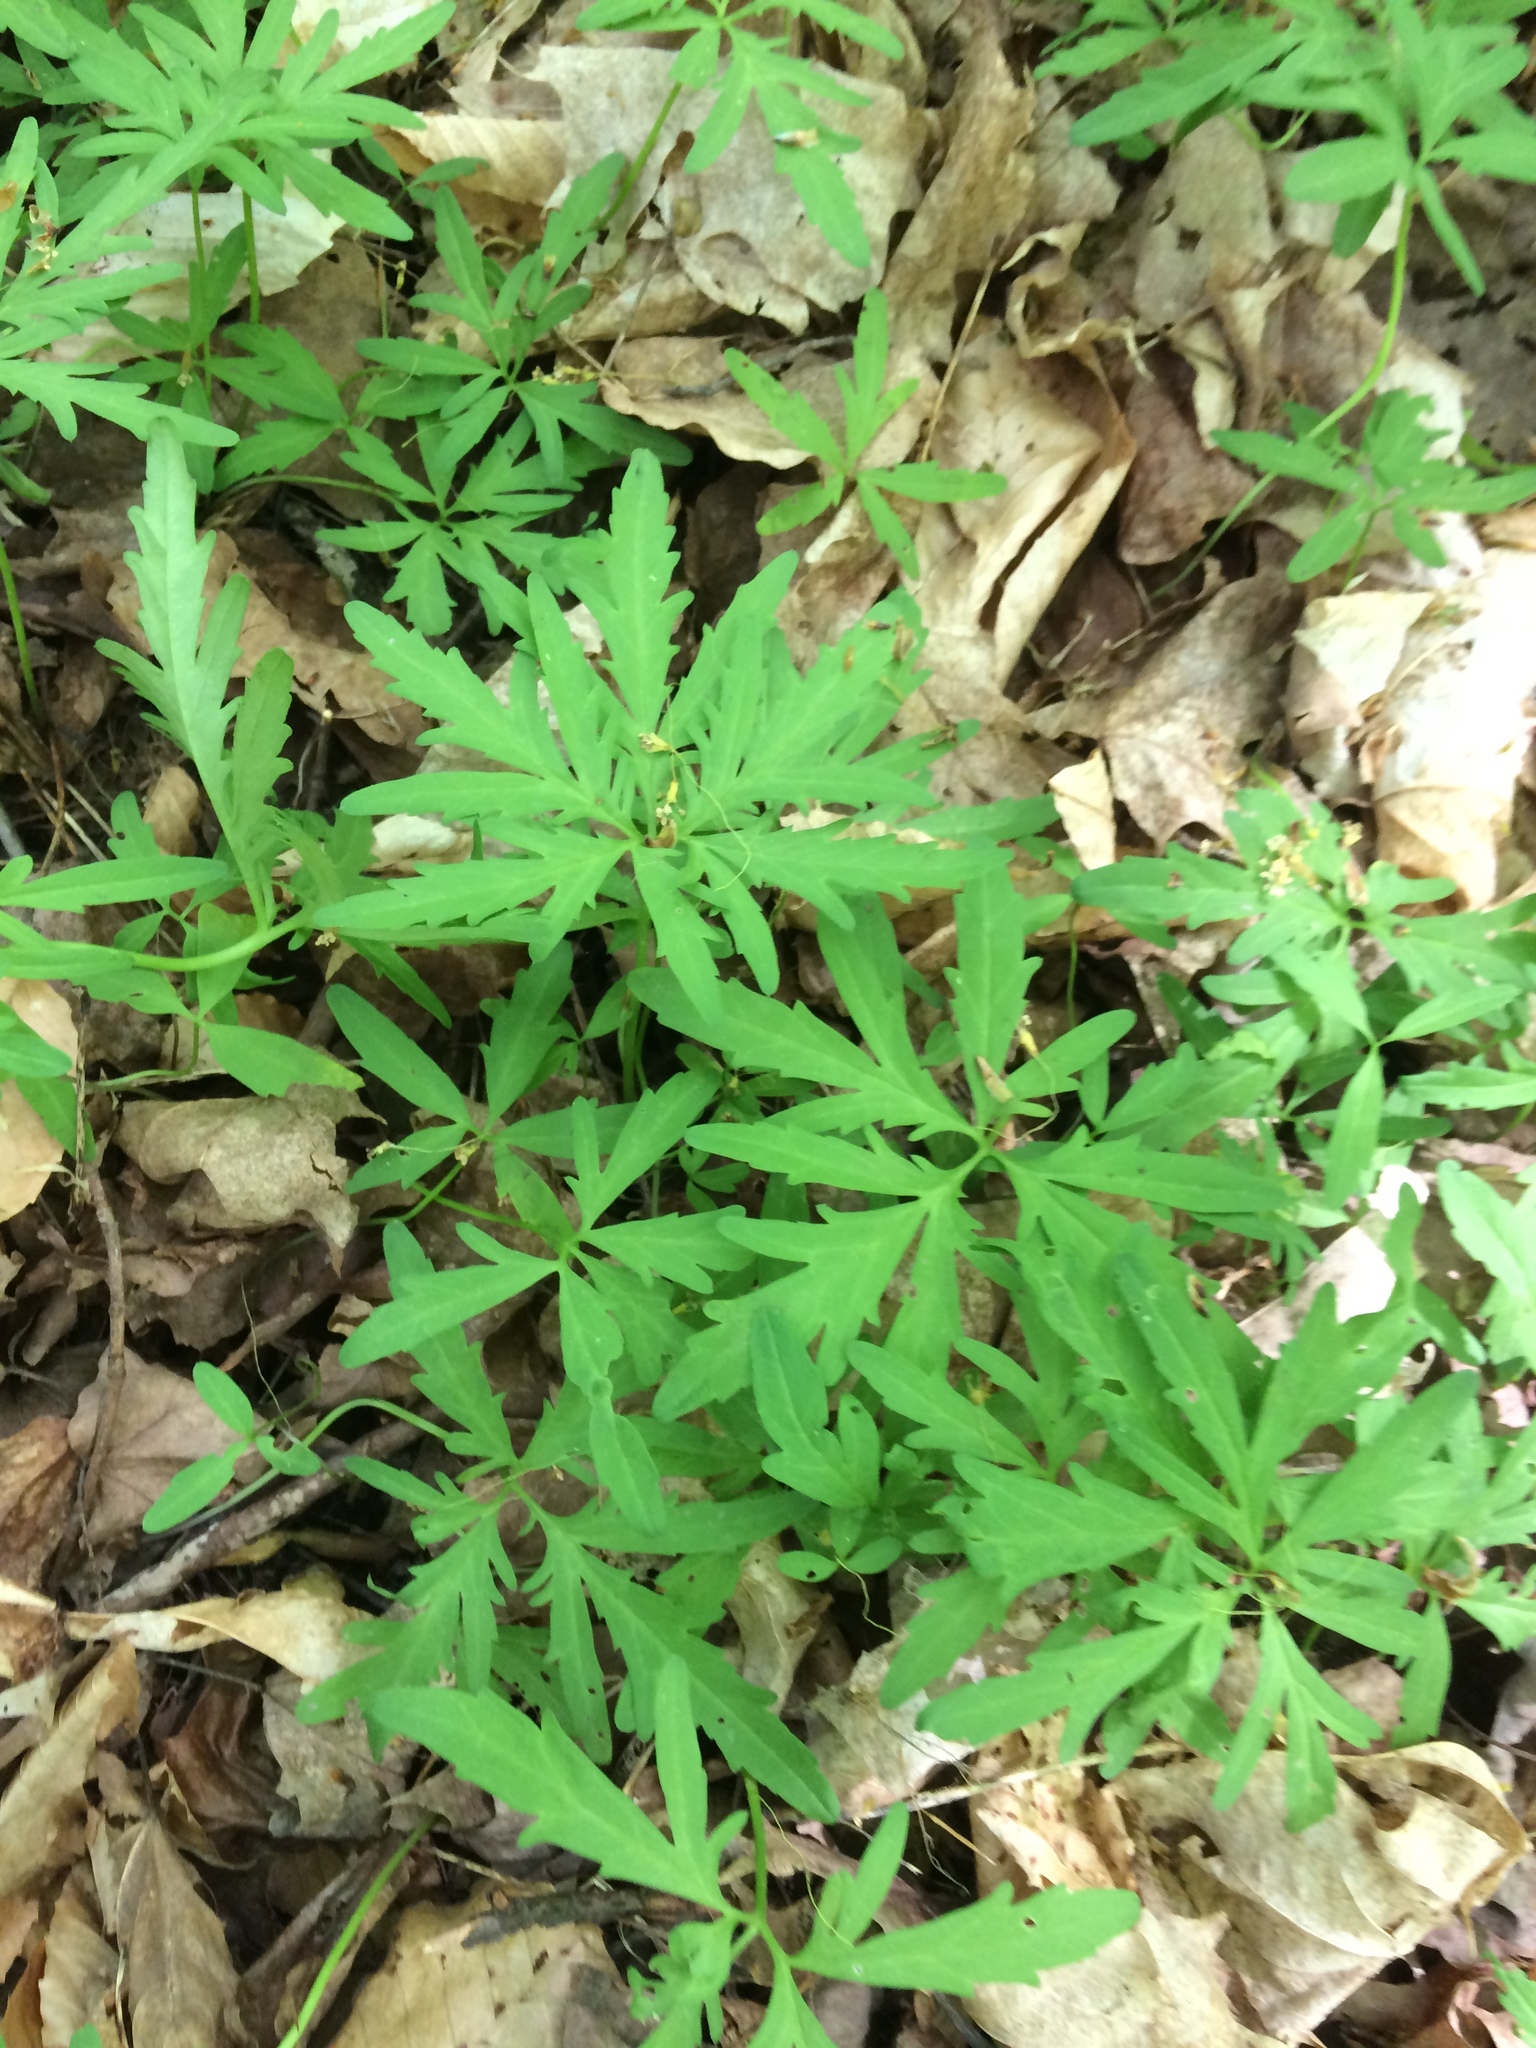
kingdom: Plantae
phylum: Tracheophyta
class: Magnoliopsida
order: Brassicales
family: Brassicaceae
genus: Cardamine
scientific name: Cardamine concatenata
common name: Cut-leaf toothcup
